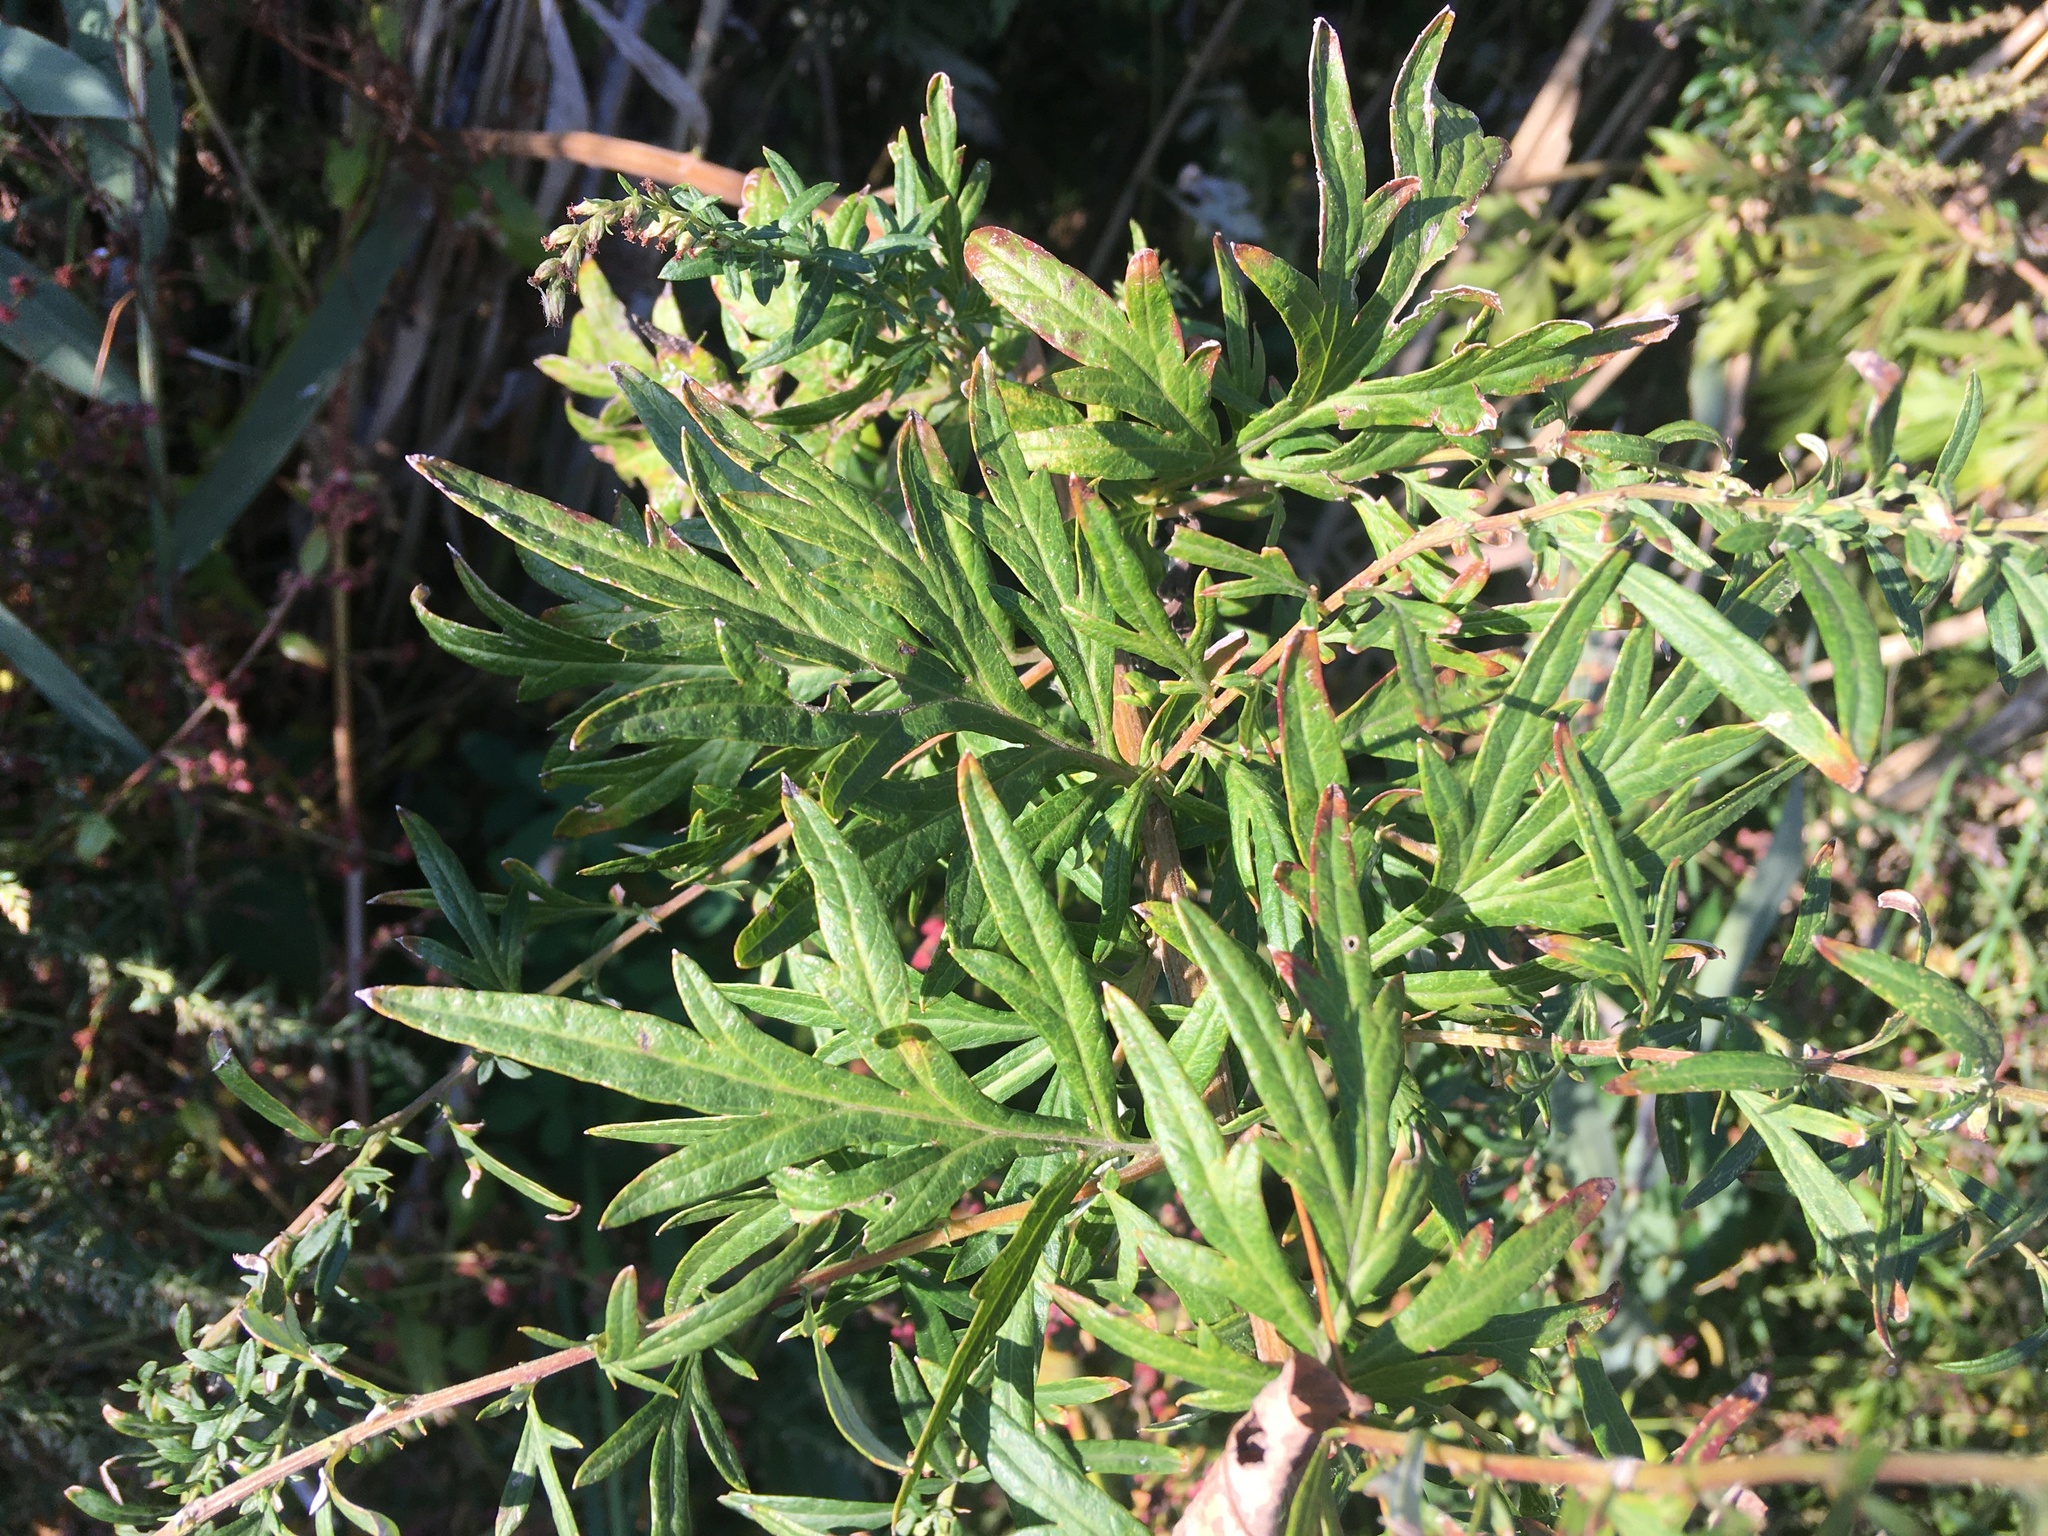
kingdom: Plantae
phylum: Tracheophyta
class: Magnoliopsida
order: Asterales
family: Asteraceae
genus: Artemisia
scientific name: Artemisia vulgaris
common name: Mugwort
